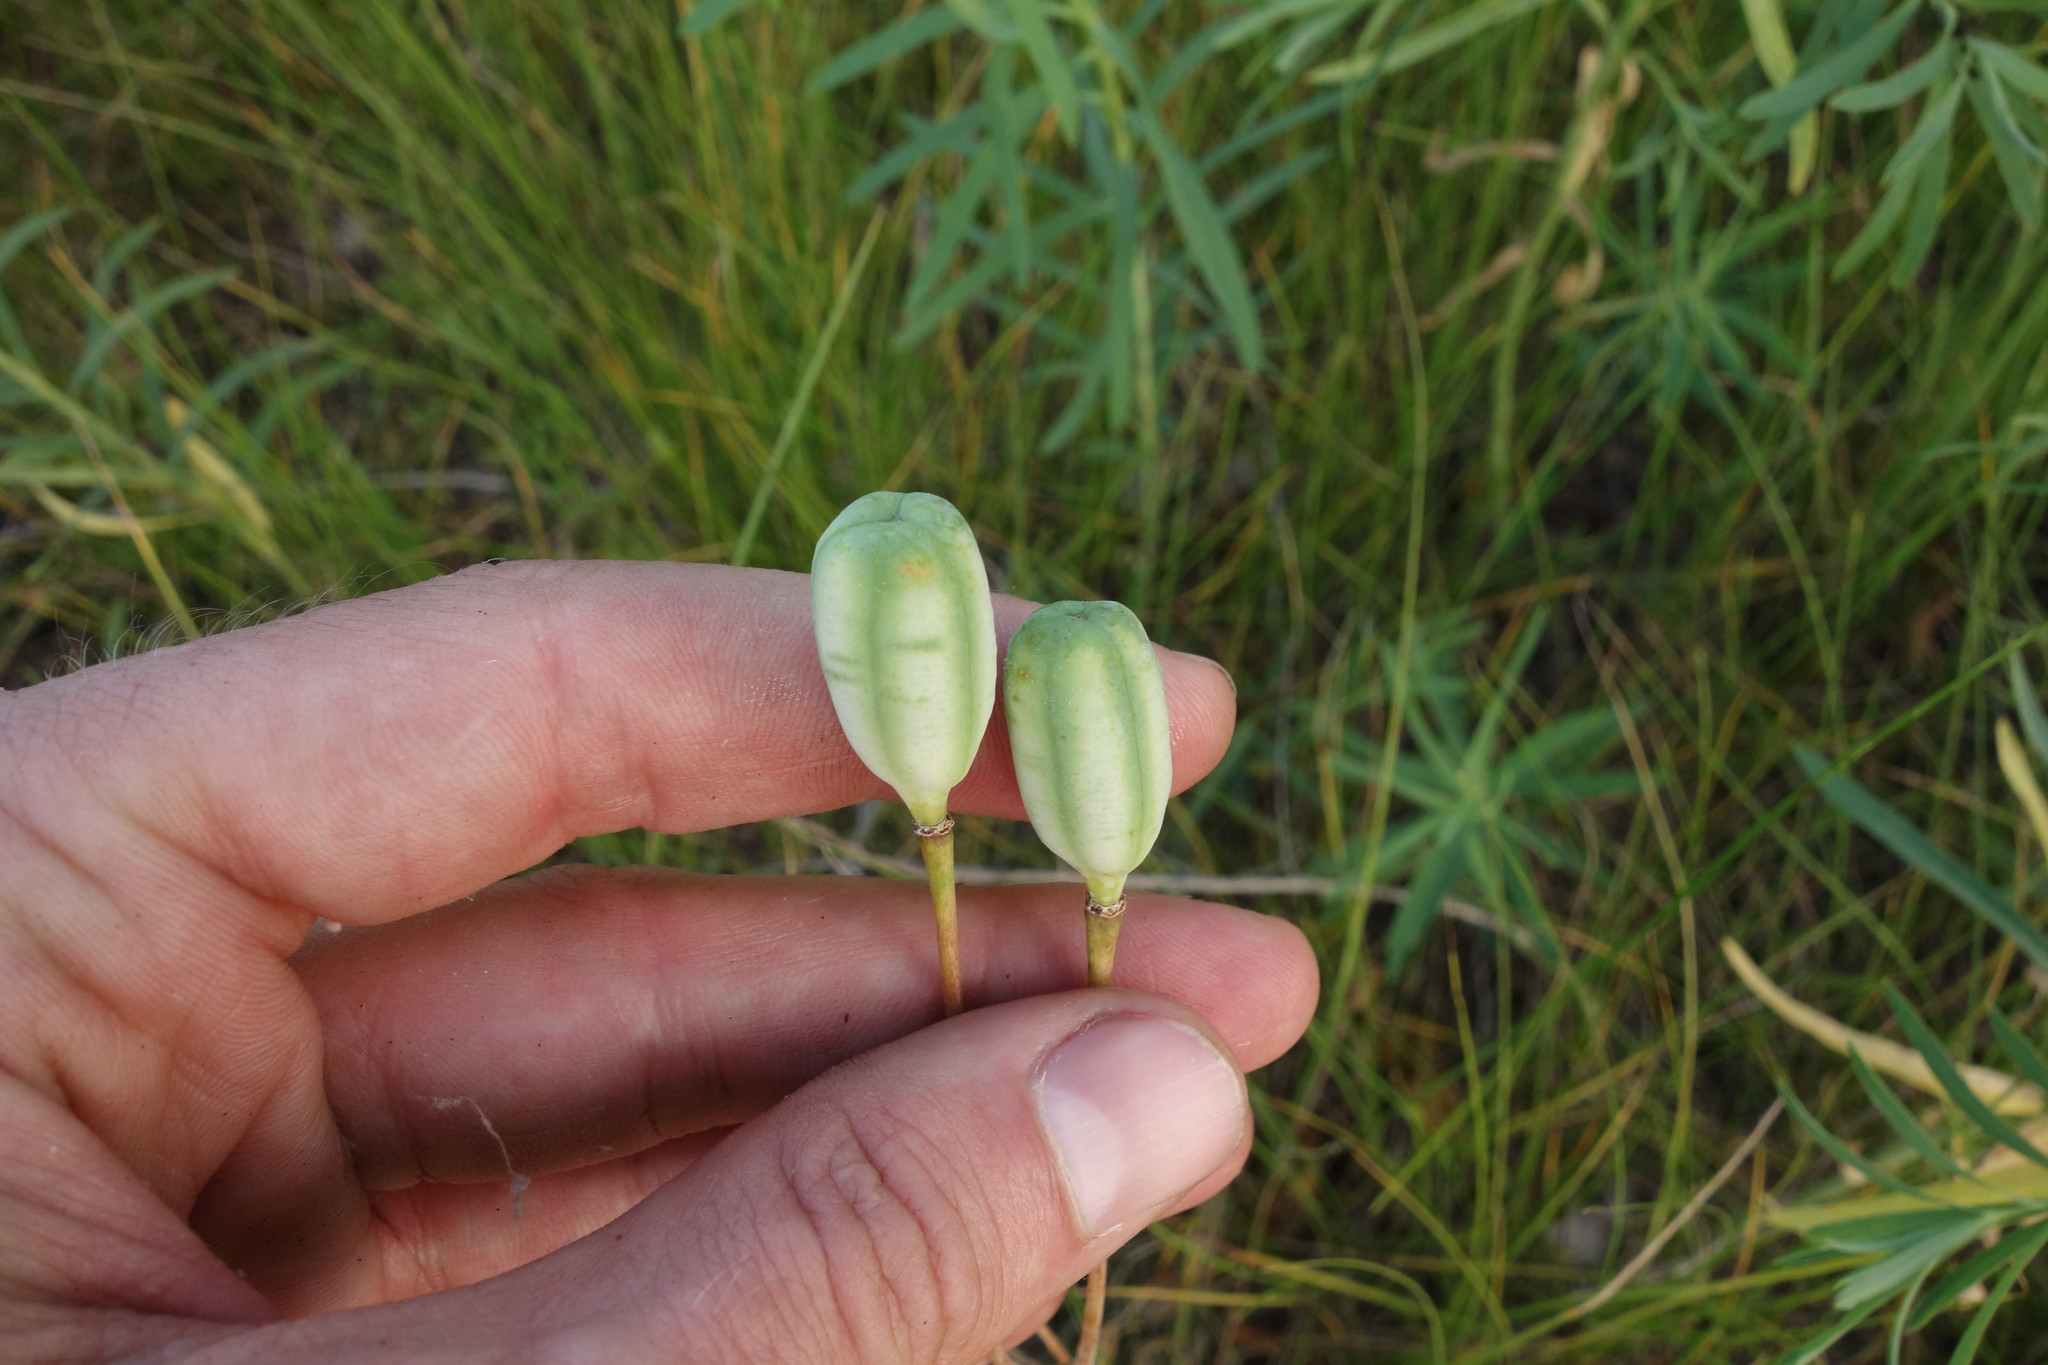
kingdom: Plantae
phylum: Tracheophyta
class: Liliopsida
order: Liliales
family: Liliaceae
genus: Fritillaria
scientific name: Fritillaria meleagroides
